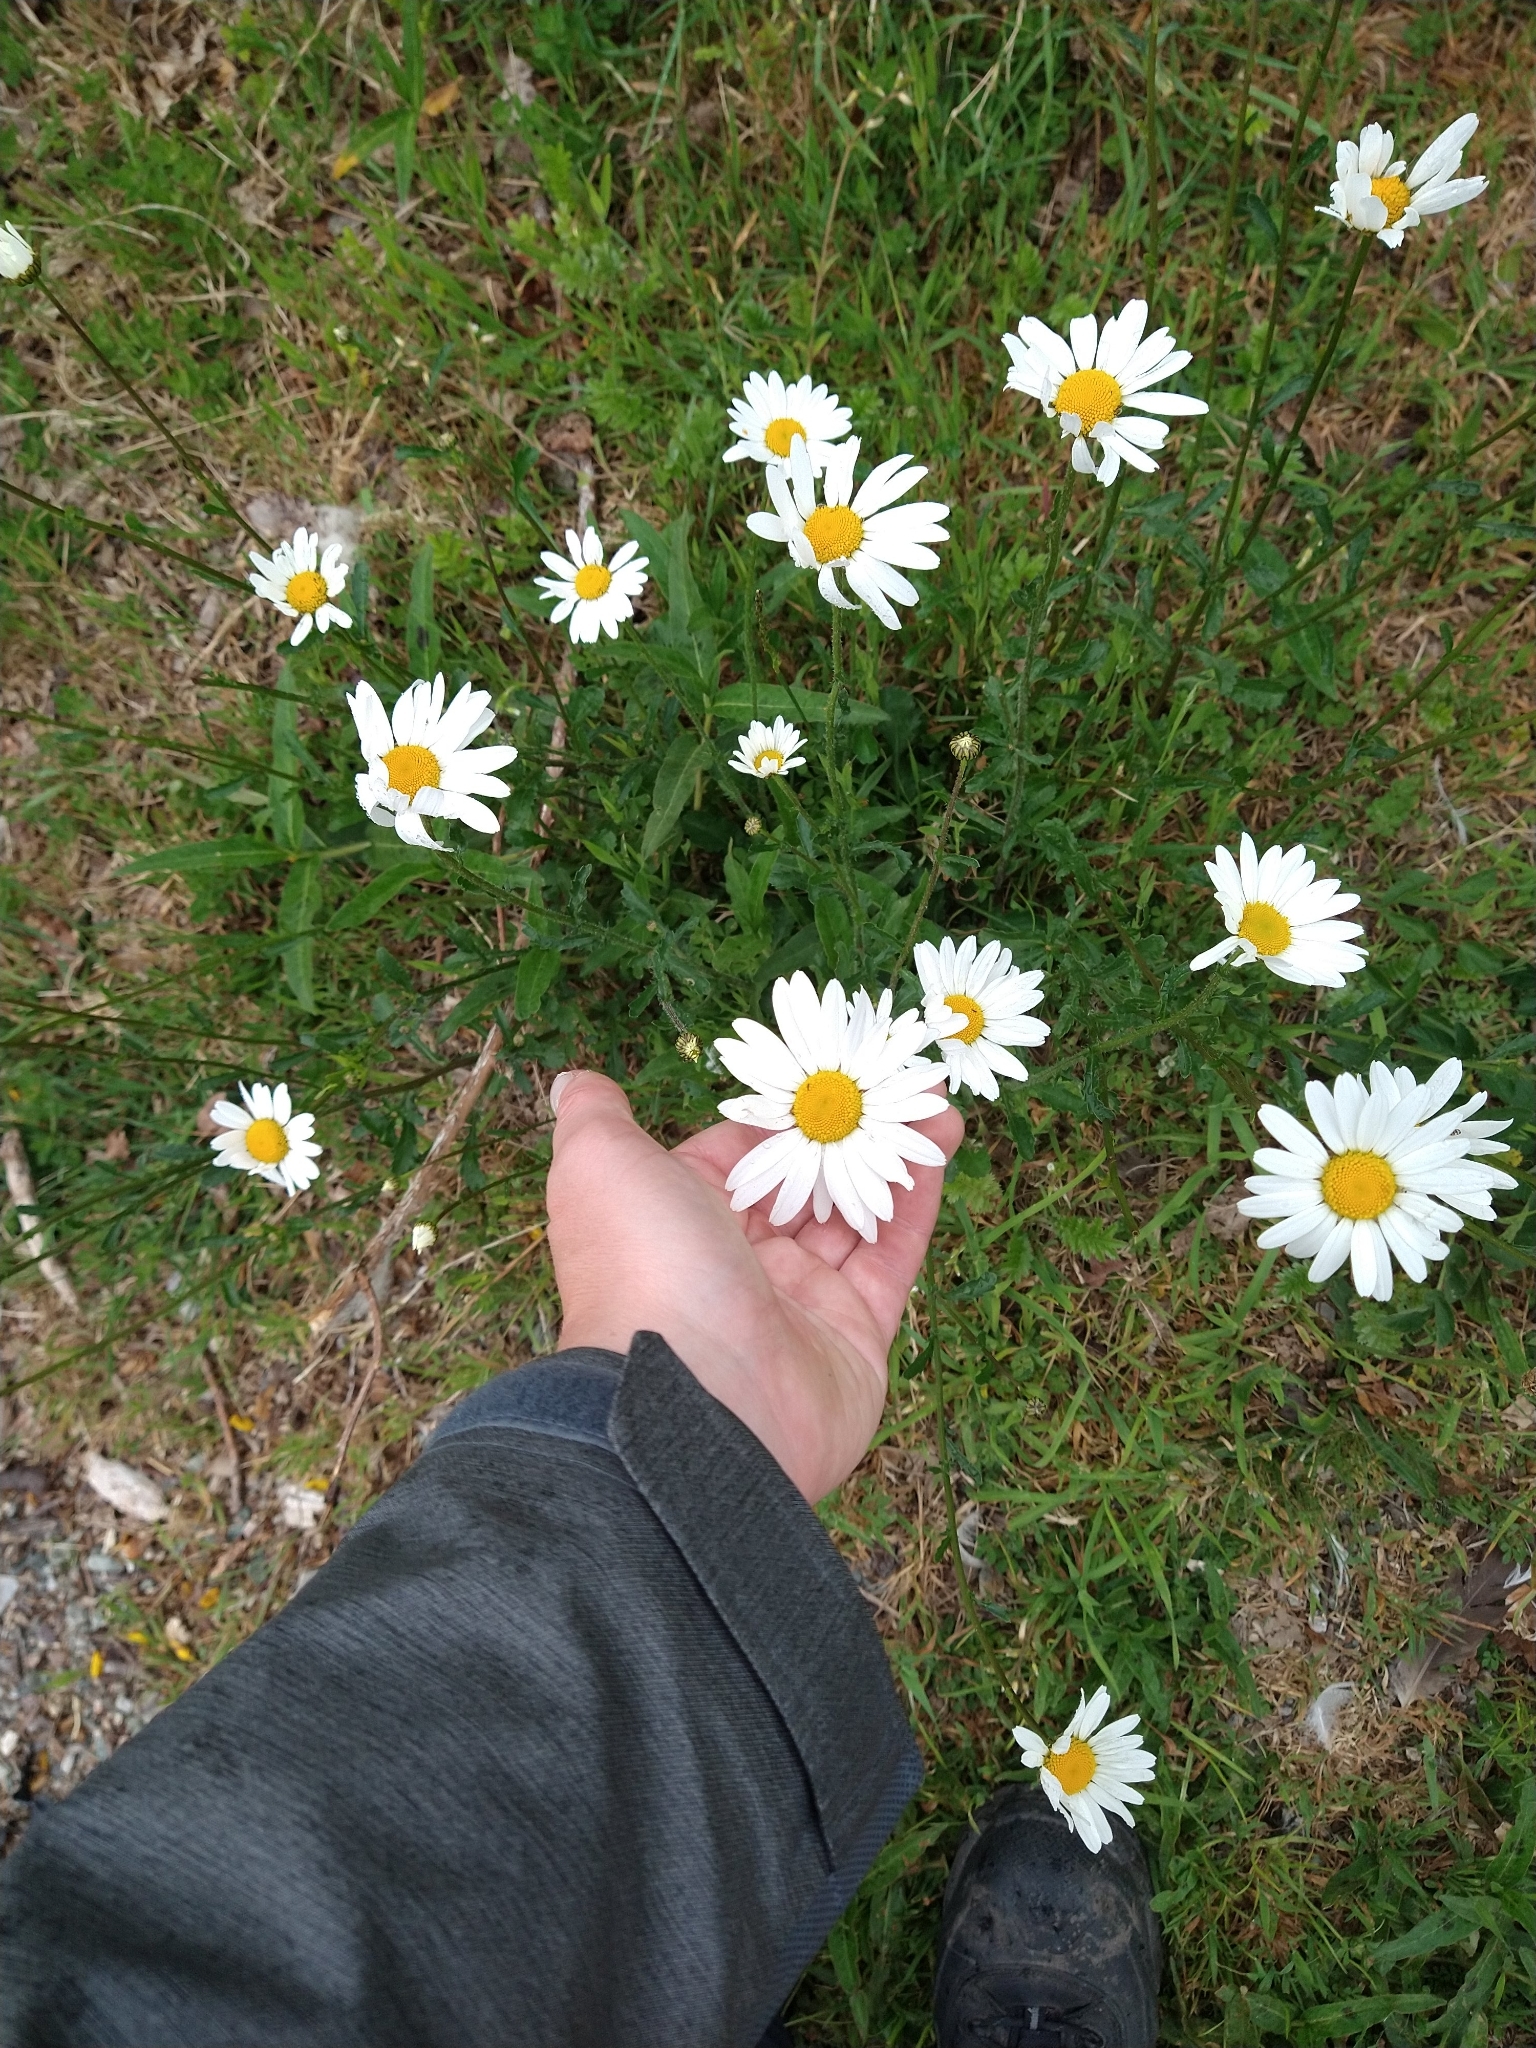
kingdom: Plantae
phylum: Tracheophyta
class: Magnoliopsida
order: Asterales
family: Asteraceae
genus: Leucanthemum
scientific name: Leucanthemum vulgare
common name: Oxeye daisy
